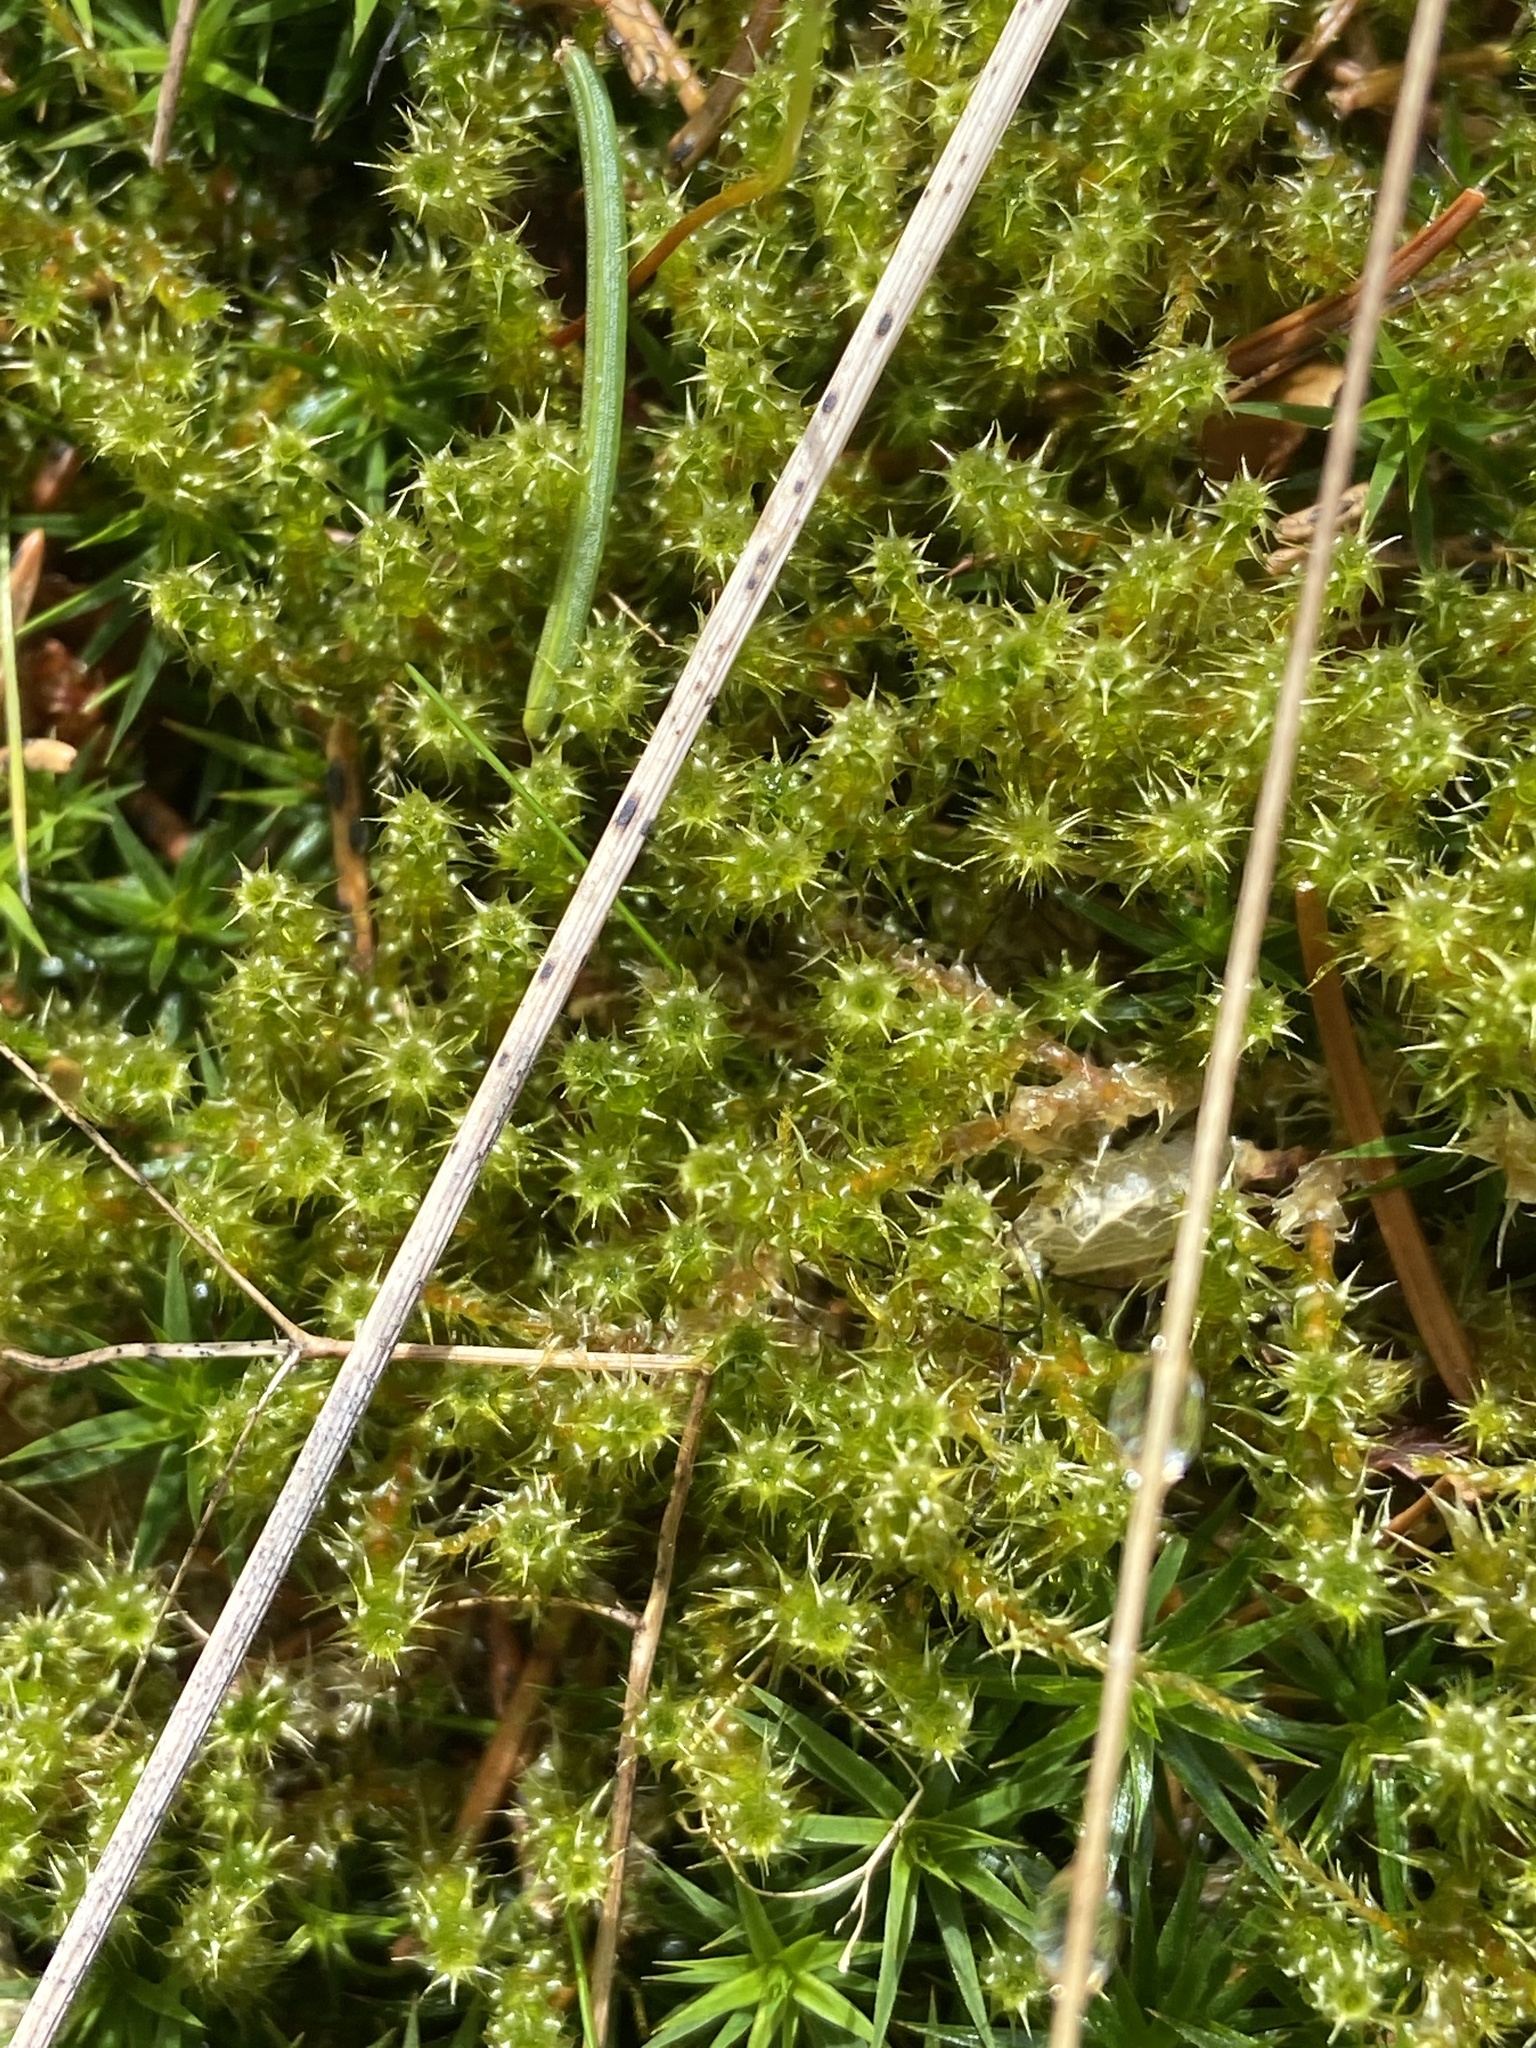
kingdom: Plantae
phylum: Bryophyta
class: Bryopsida
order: Hypnales
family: Hylocomiaceae
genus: Rhytidiadelphus
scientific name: Rhytidiadelphus squarrosus
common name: Springy turf-moss
